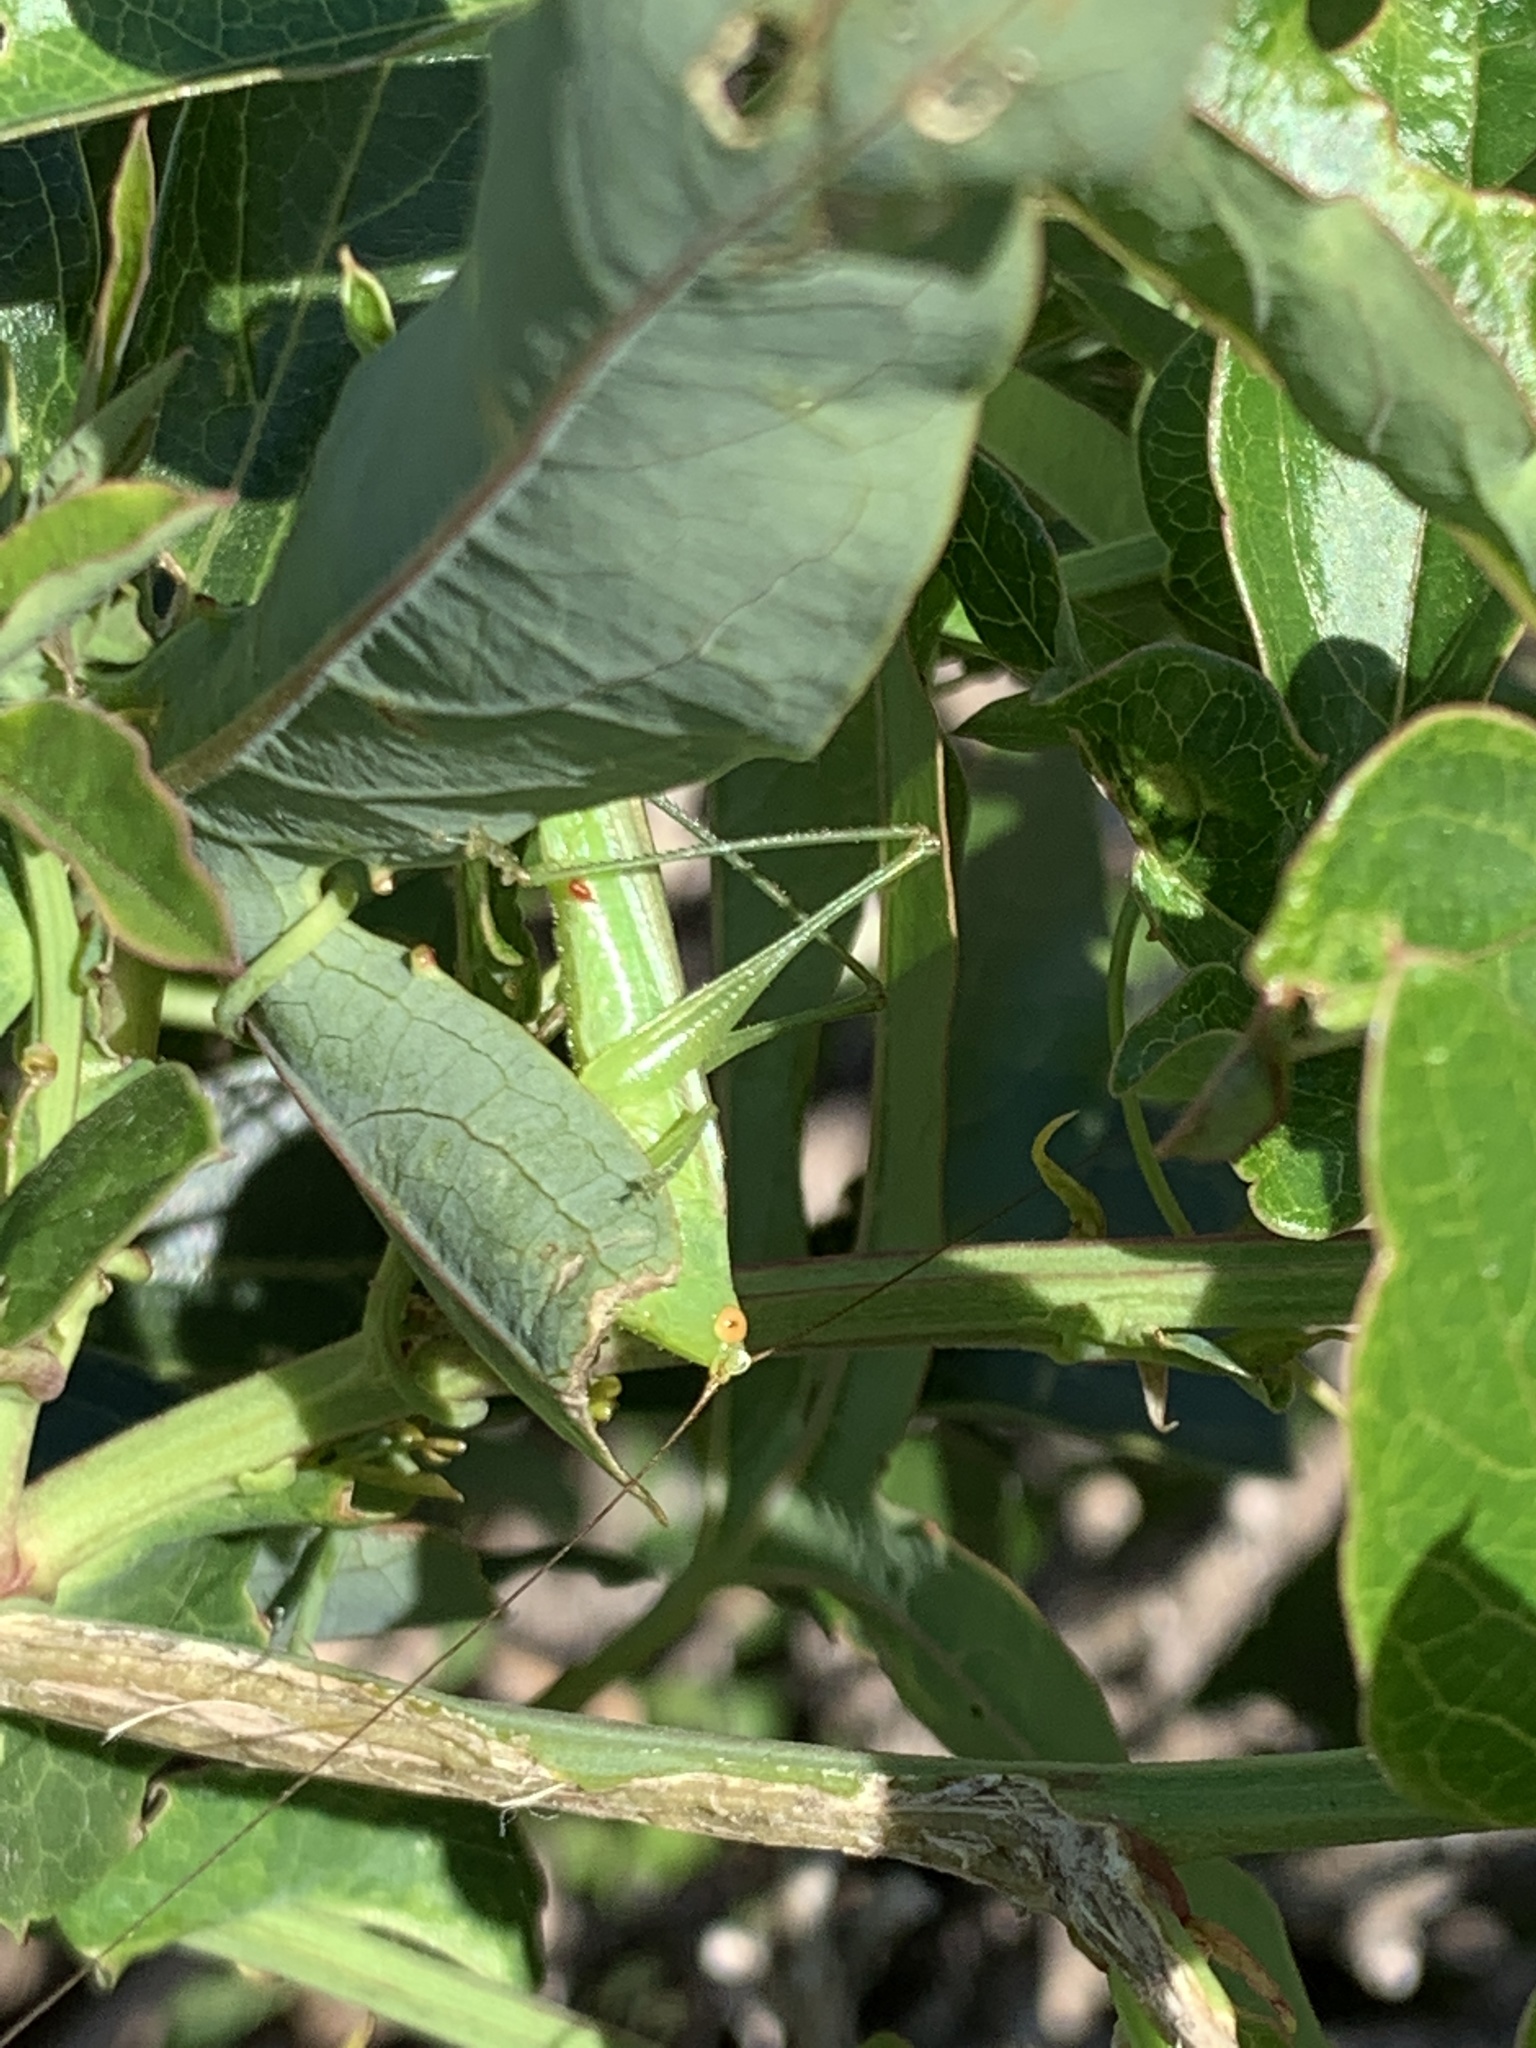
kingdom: Animalia
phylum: Arthropoda
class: Insecta
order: Orthoptera
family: Tettigoniidae
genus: Conocephalus
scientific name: Conocephalus longipes
